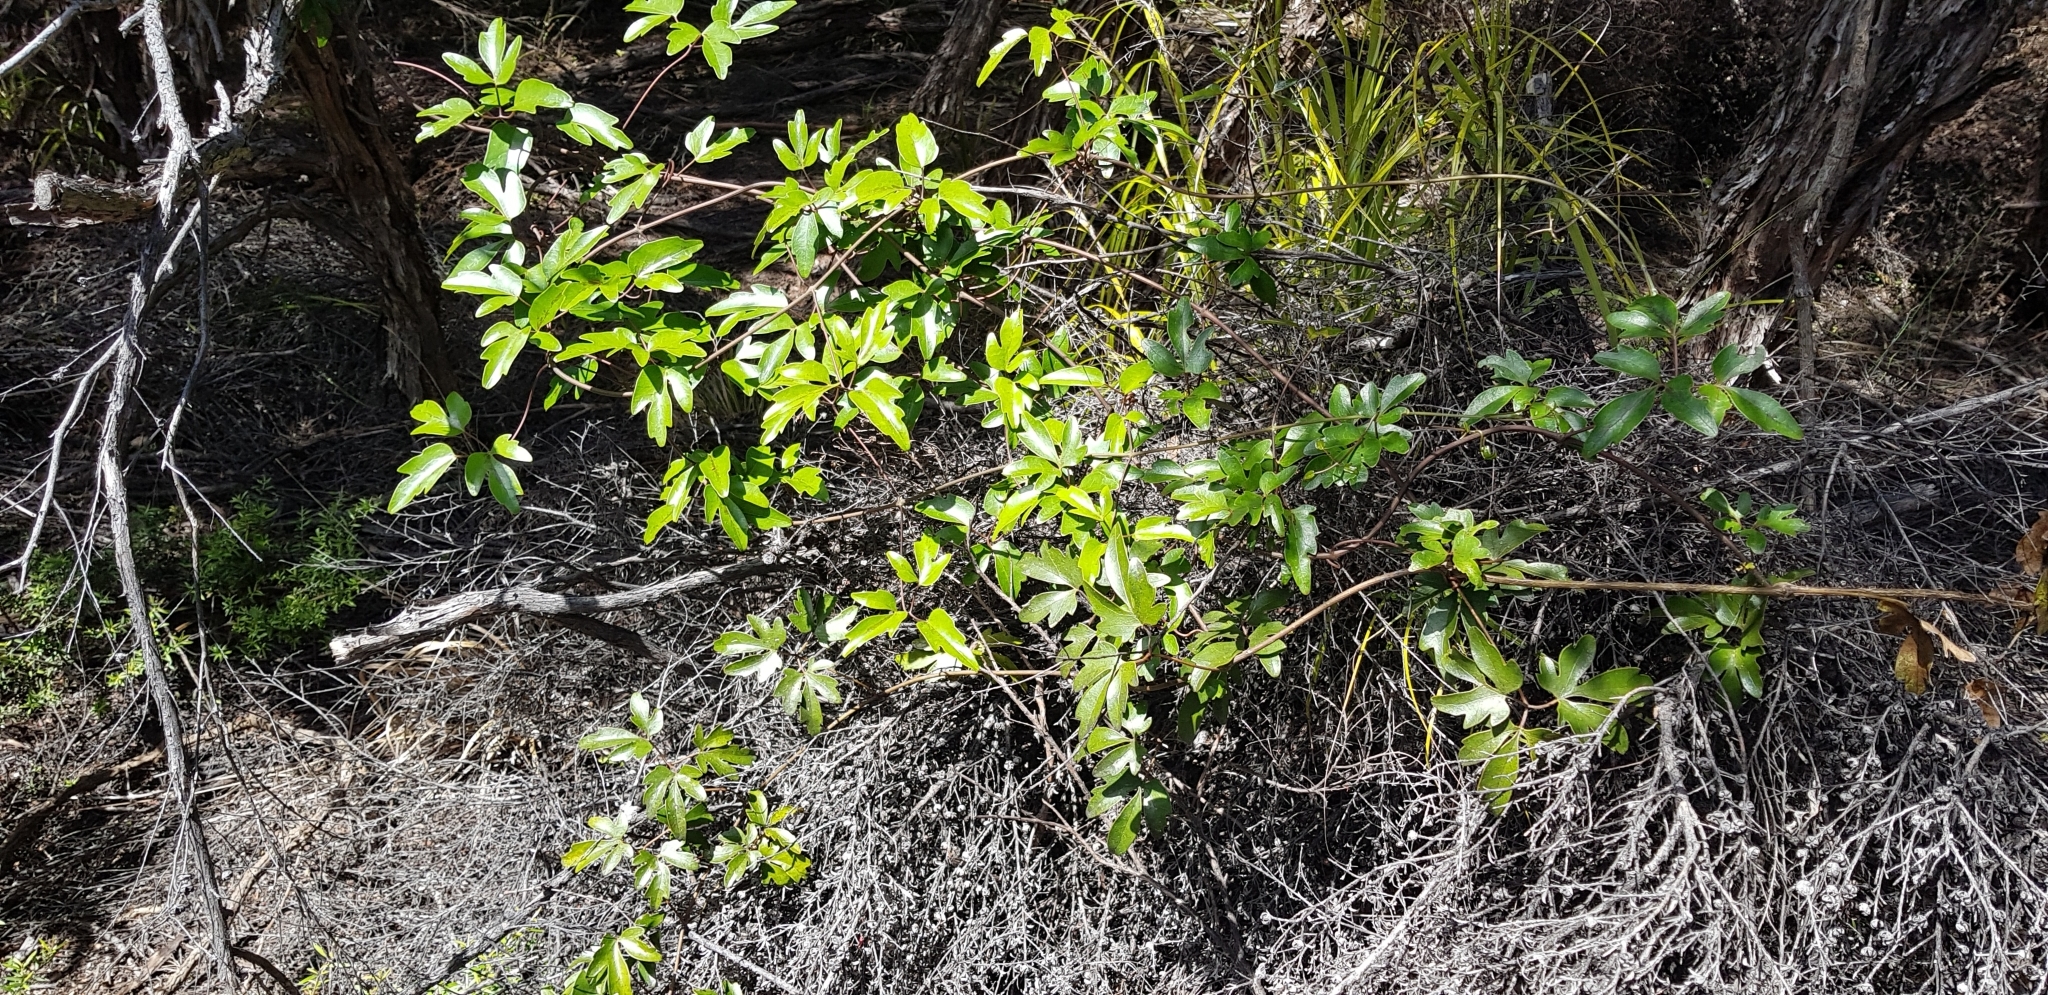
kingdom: Plantae
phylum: Tracheophyta
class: Magnoliopsida
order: Ranunculales
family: Ranunculaceae
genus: Clematis
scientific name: Clematis forsteri
